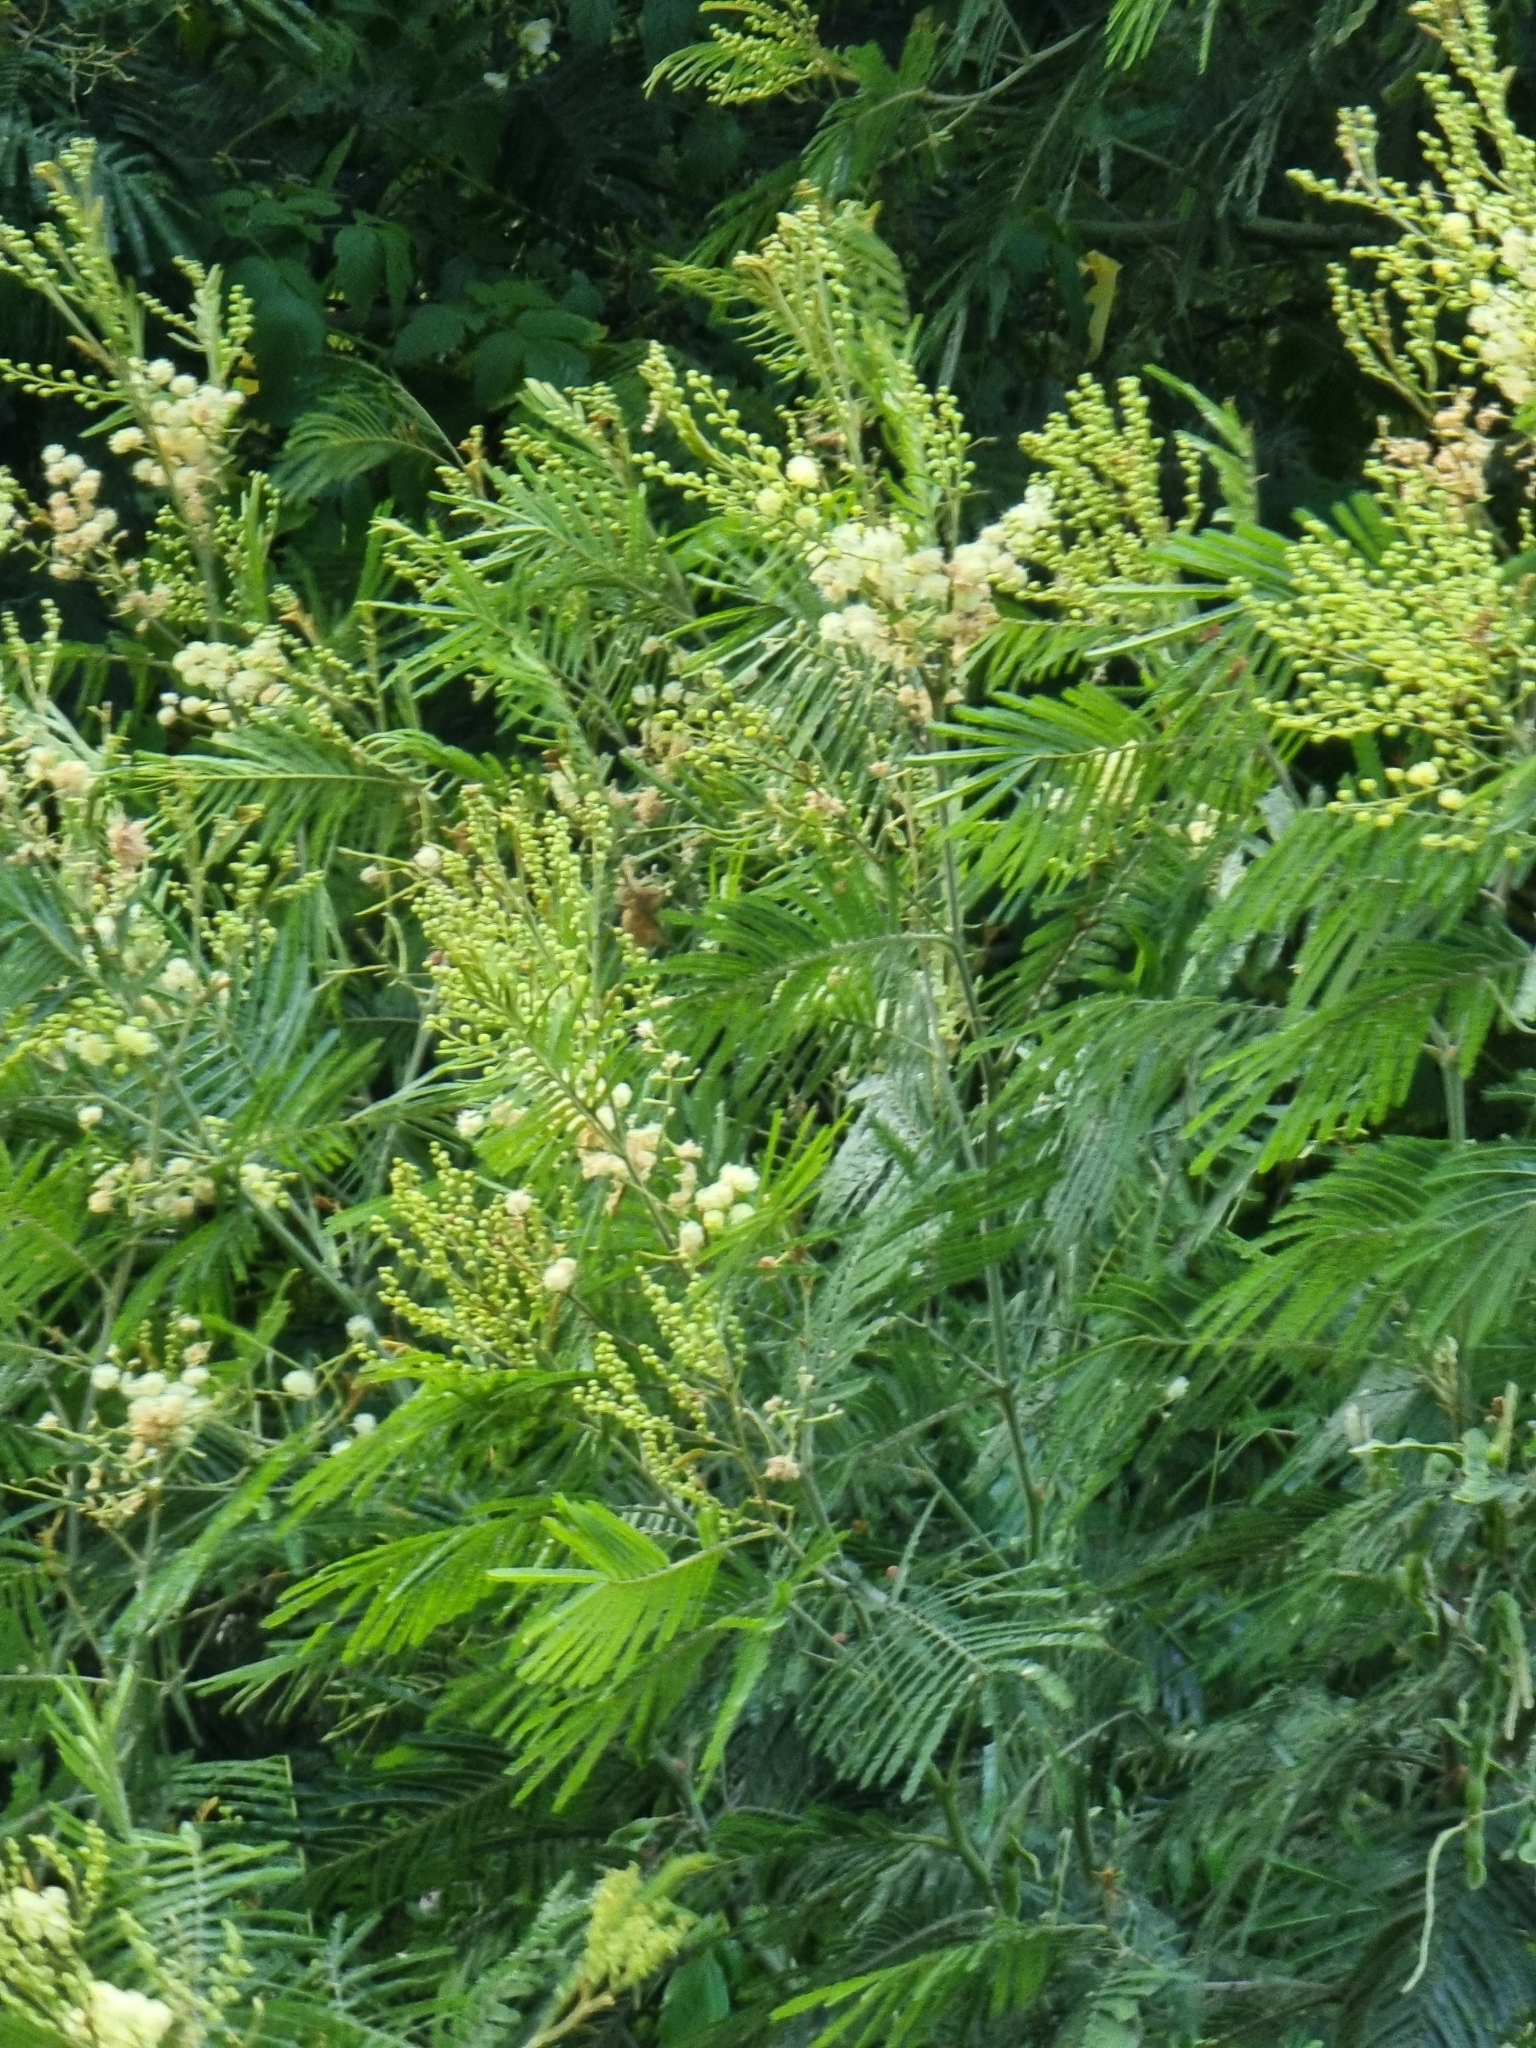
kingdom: Plantae
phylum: Tracheophyta
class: Magnoliopsida
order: Fabales
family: Fabaceae
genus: Acacia
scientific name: Acacia mearnsii
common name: Black wattle
